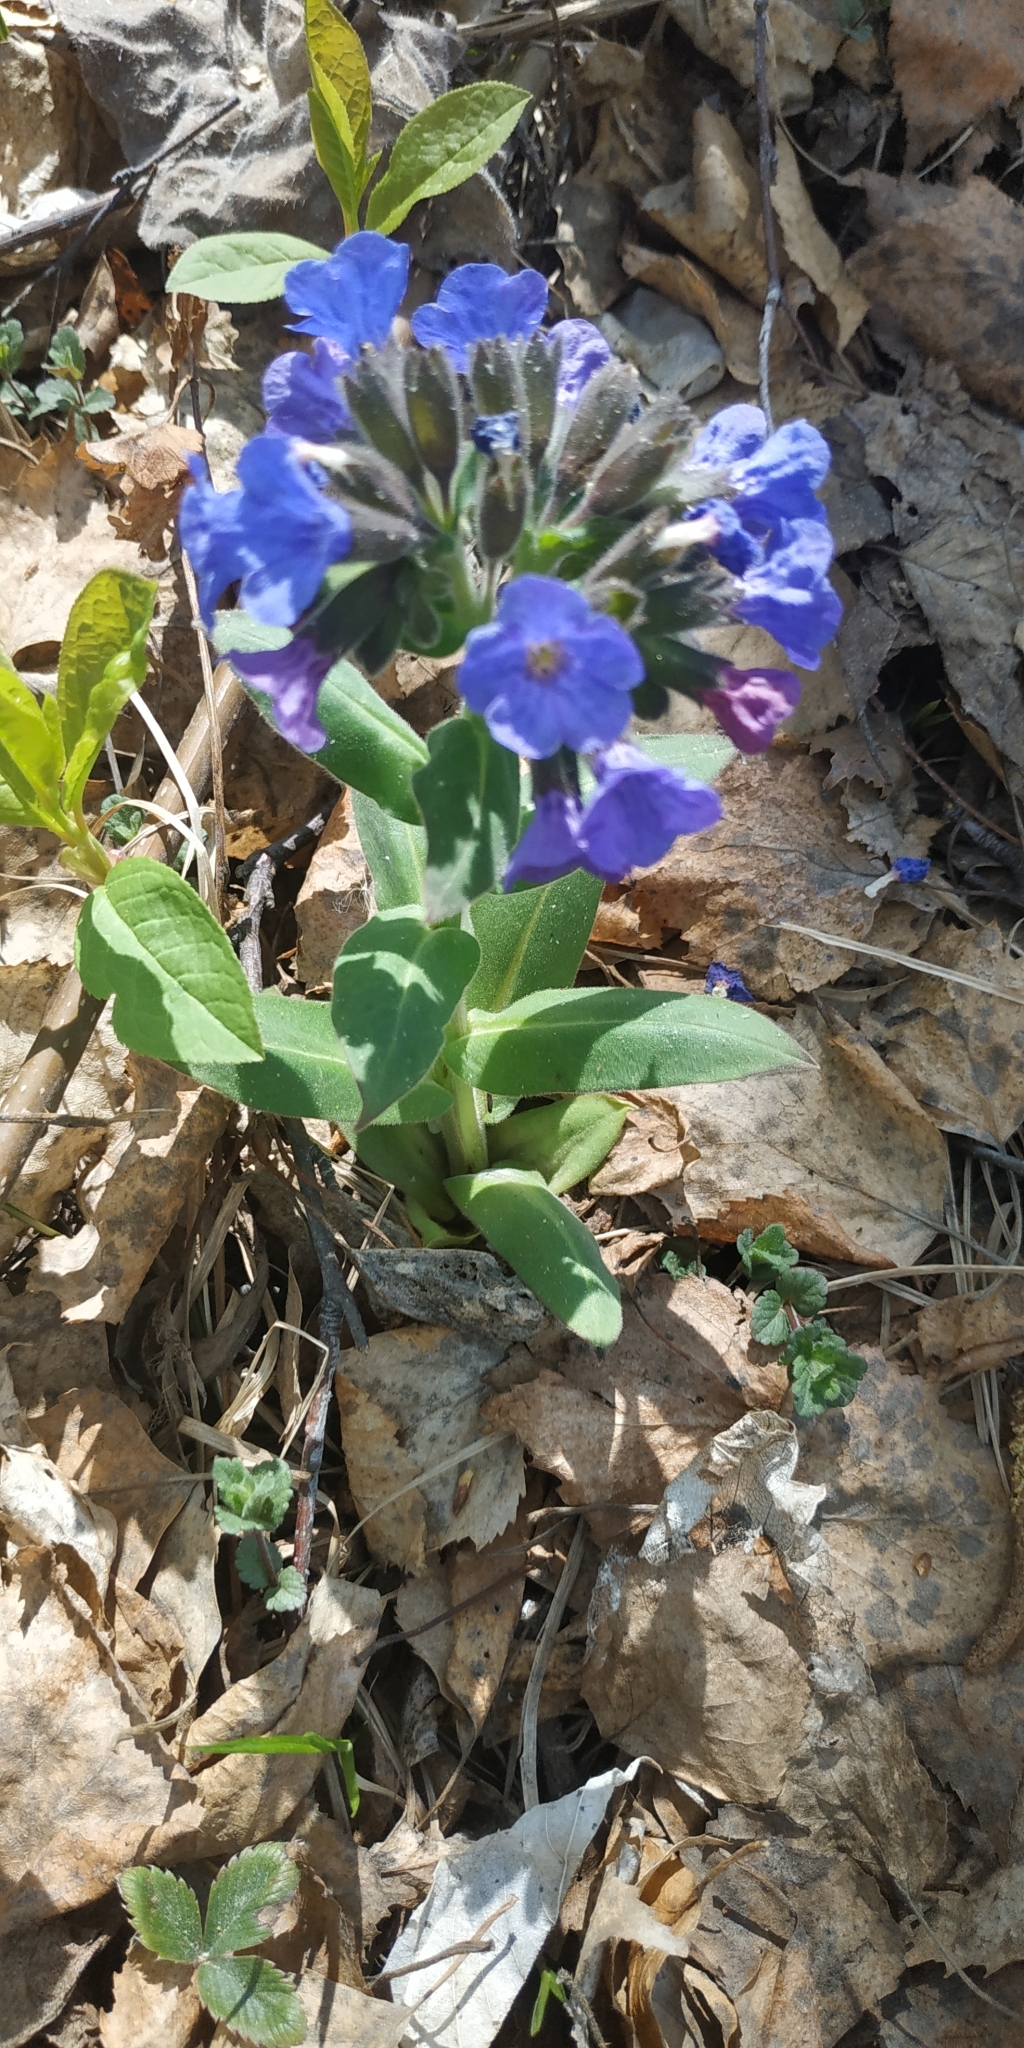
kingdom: Plantae
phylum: Tracheophyta
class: Magnoliopsida
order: Boraginales
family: Boraginaceae
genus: Pulmonaria
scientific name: Pulmonaria mollis
